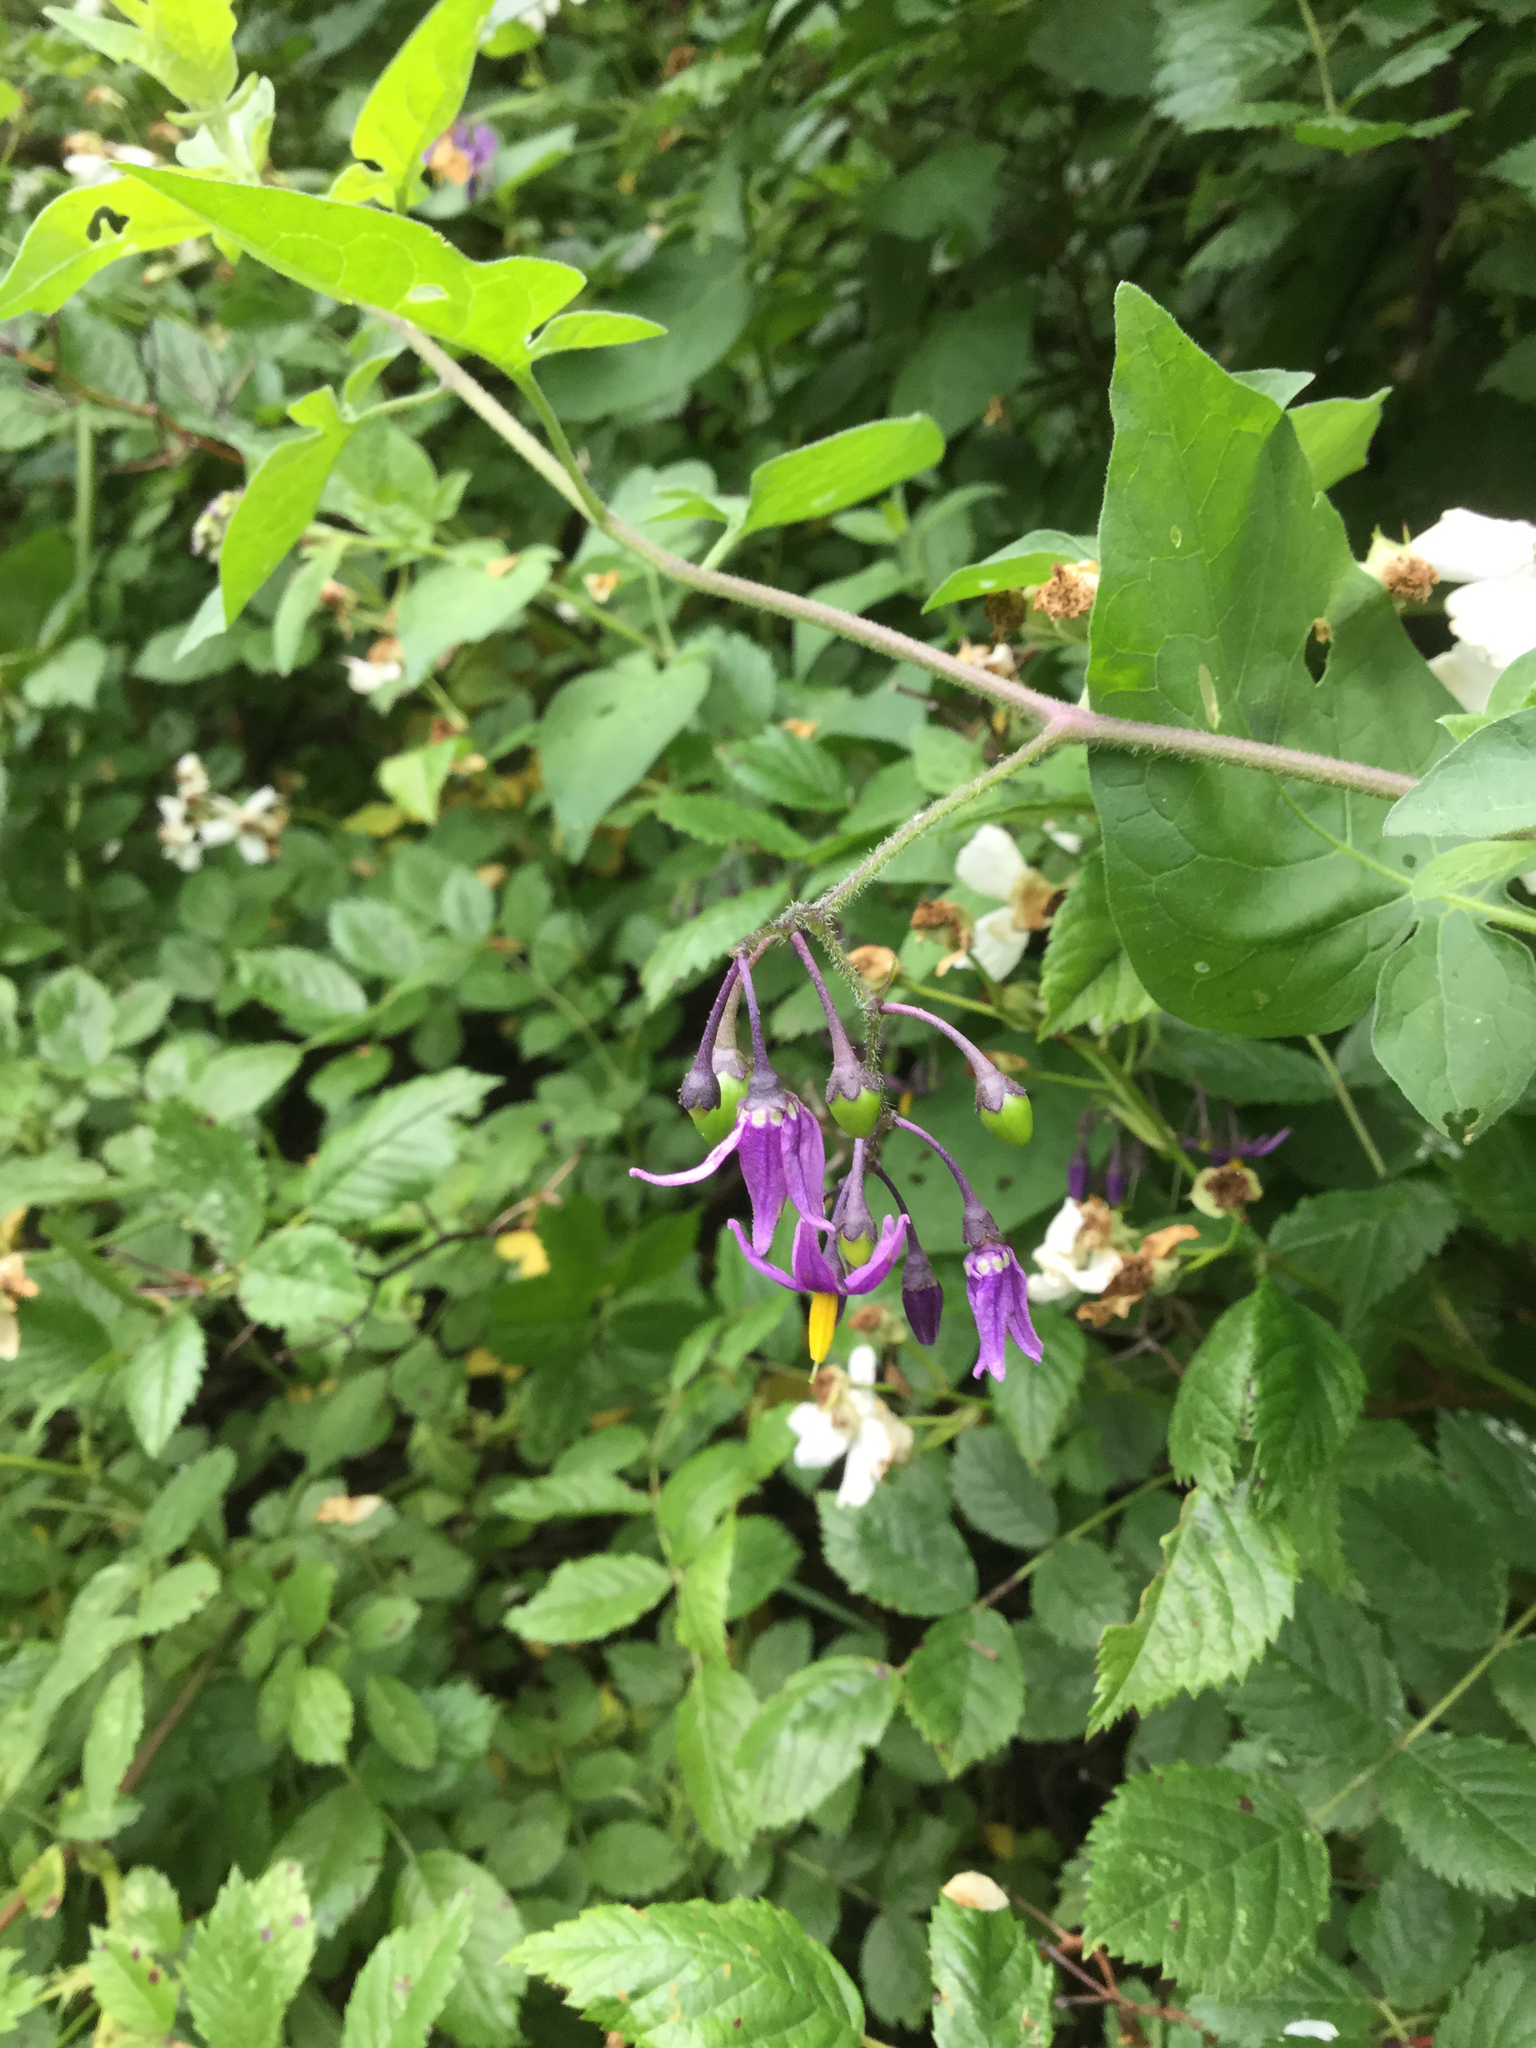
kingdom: Plantae
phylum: Tracheophyta
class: Magnoliopsida
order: Solanales
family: Solanaceae
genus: Solanum
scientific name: Solanum dulcamara
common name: Climbing nightshade
